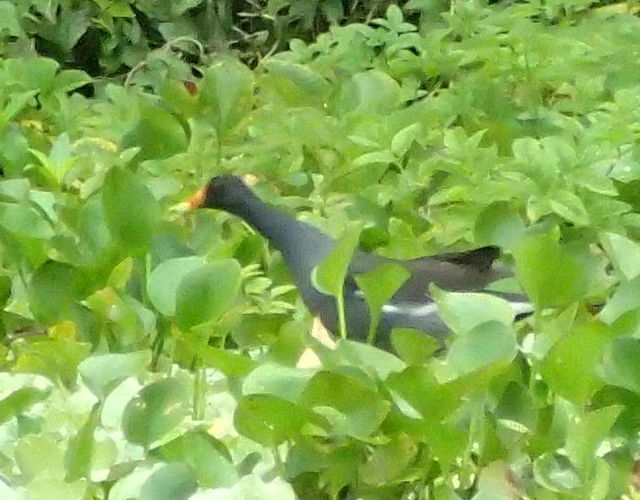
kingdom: Animalia
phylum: Chordata
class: Aves
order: Gruiformes
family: Rallidae
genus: Gallinula
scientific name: Gallinula chloropus
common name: Common moorhen
